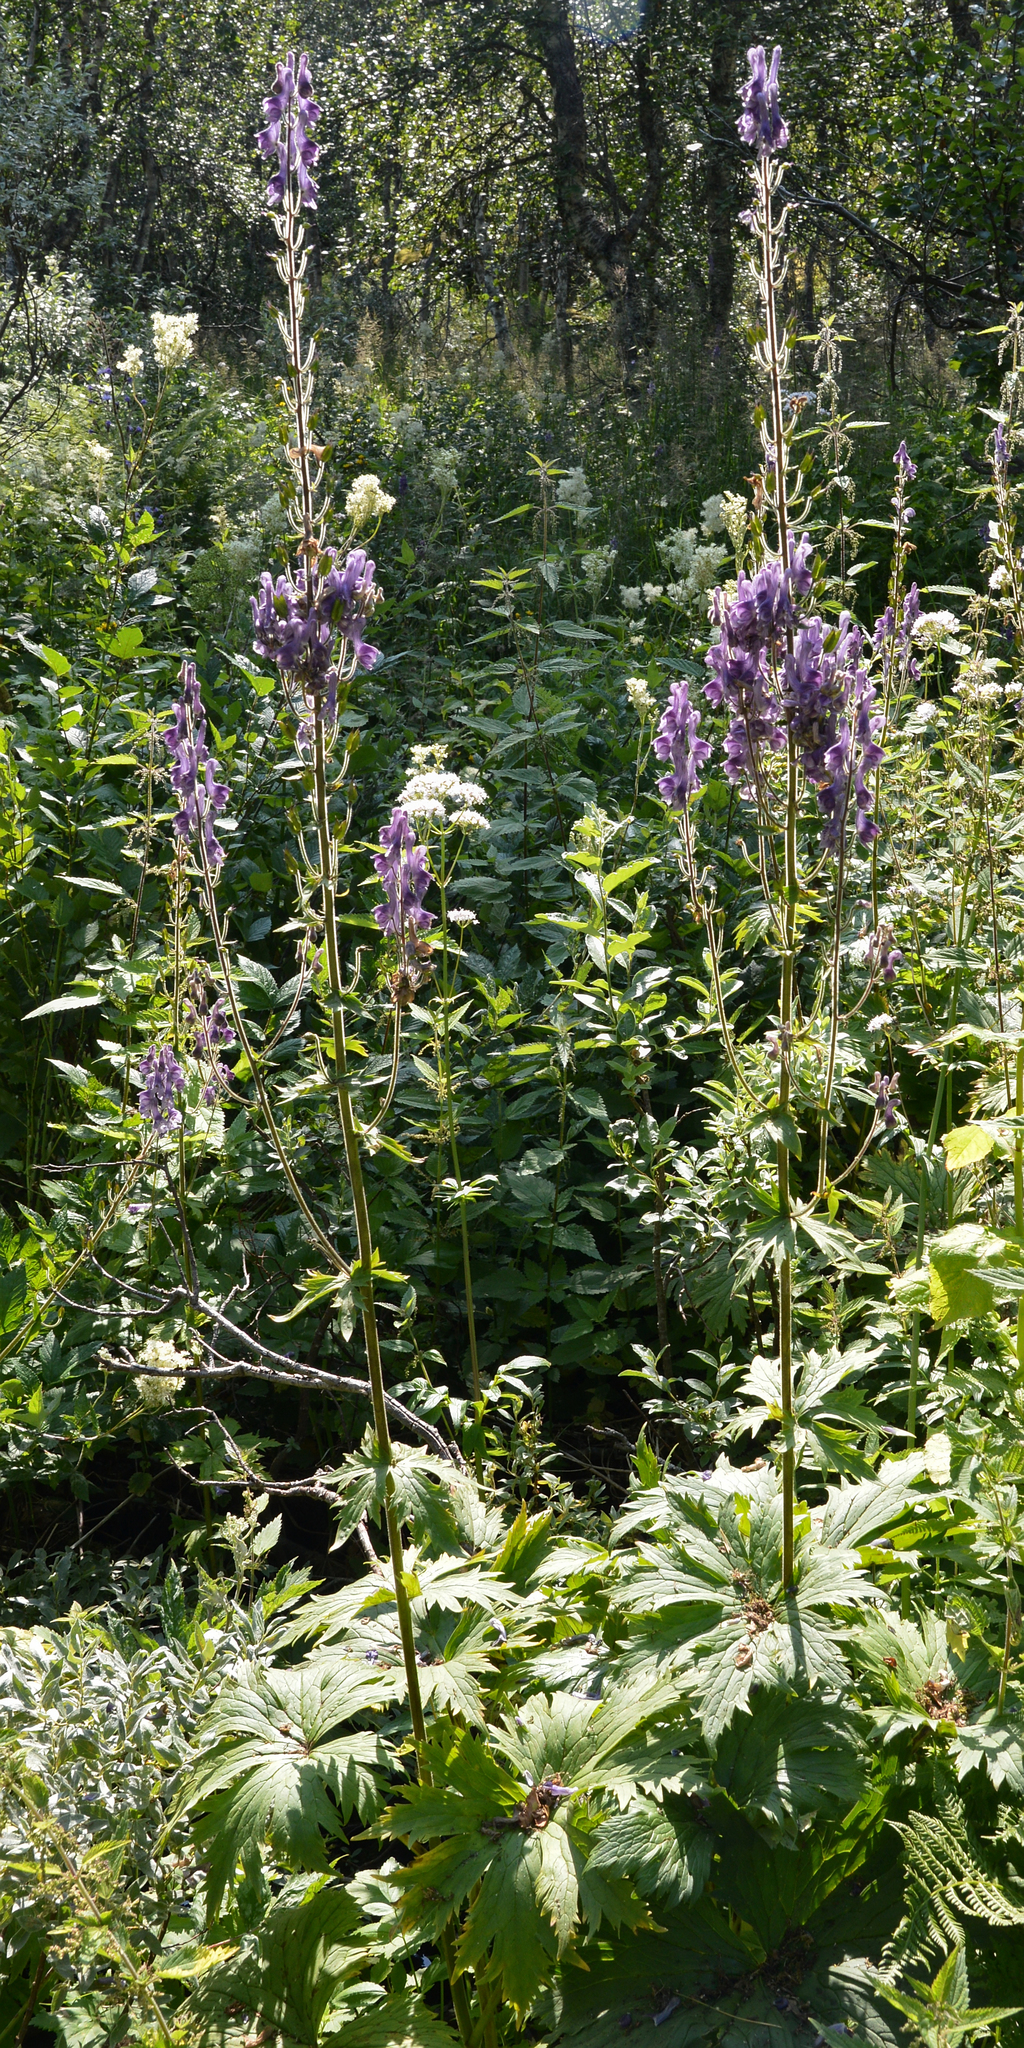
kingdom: Plantae
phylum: Tracheophyta
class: Magnoliopsida
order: Ranunculales
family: Ranunculaceae
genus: Aconitum
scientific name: Aconitum septentrionale
